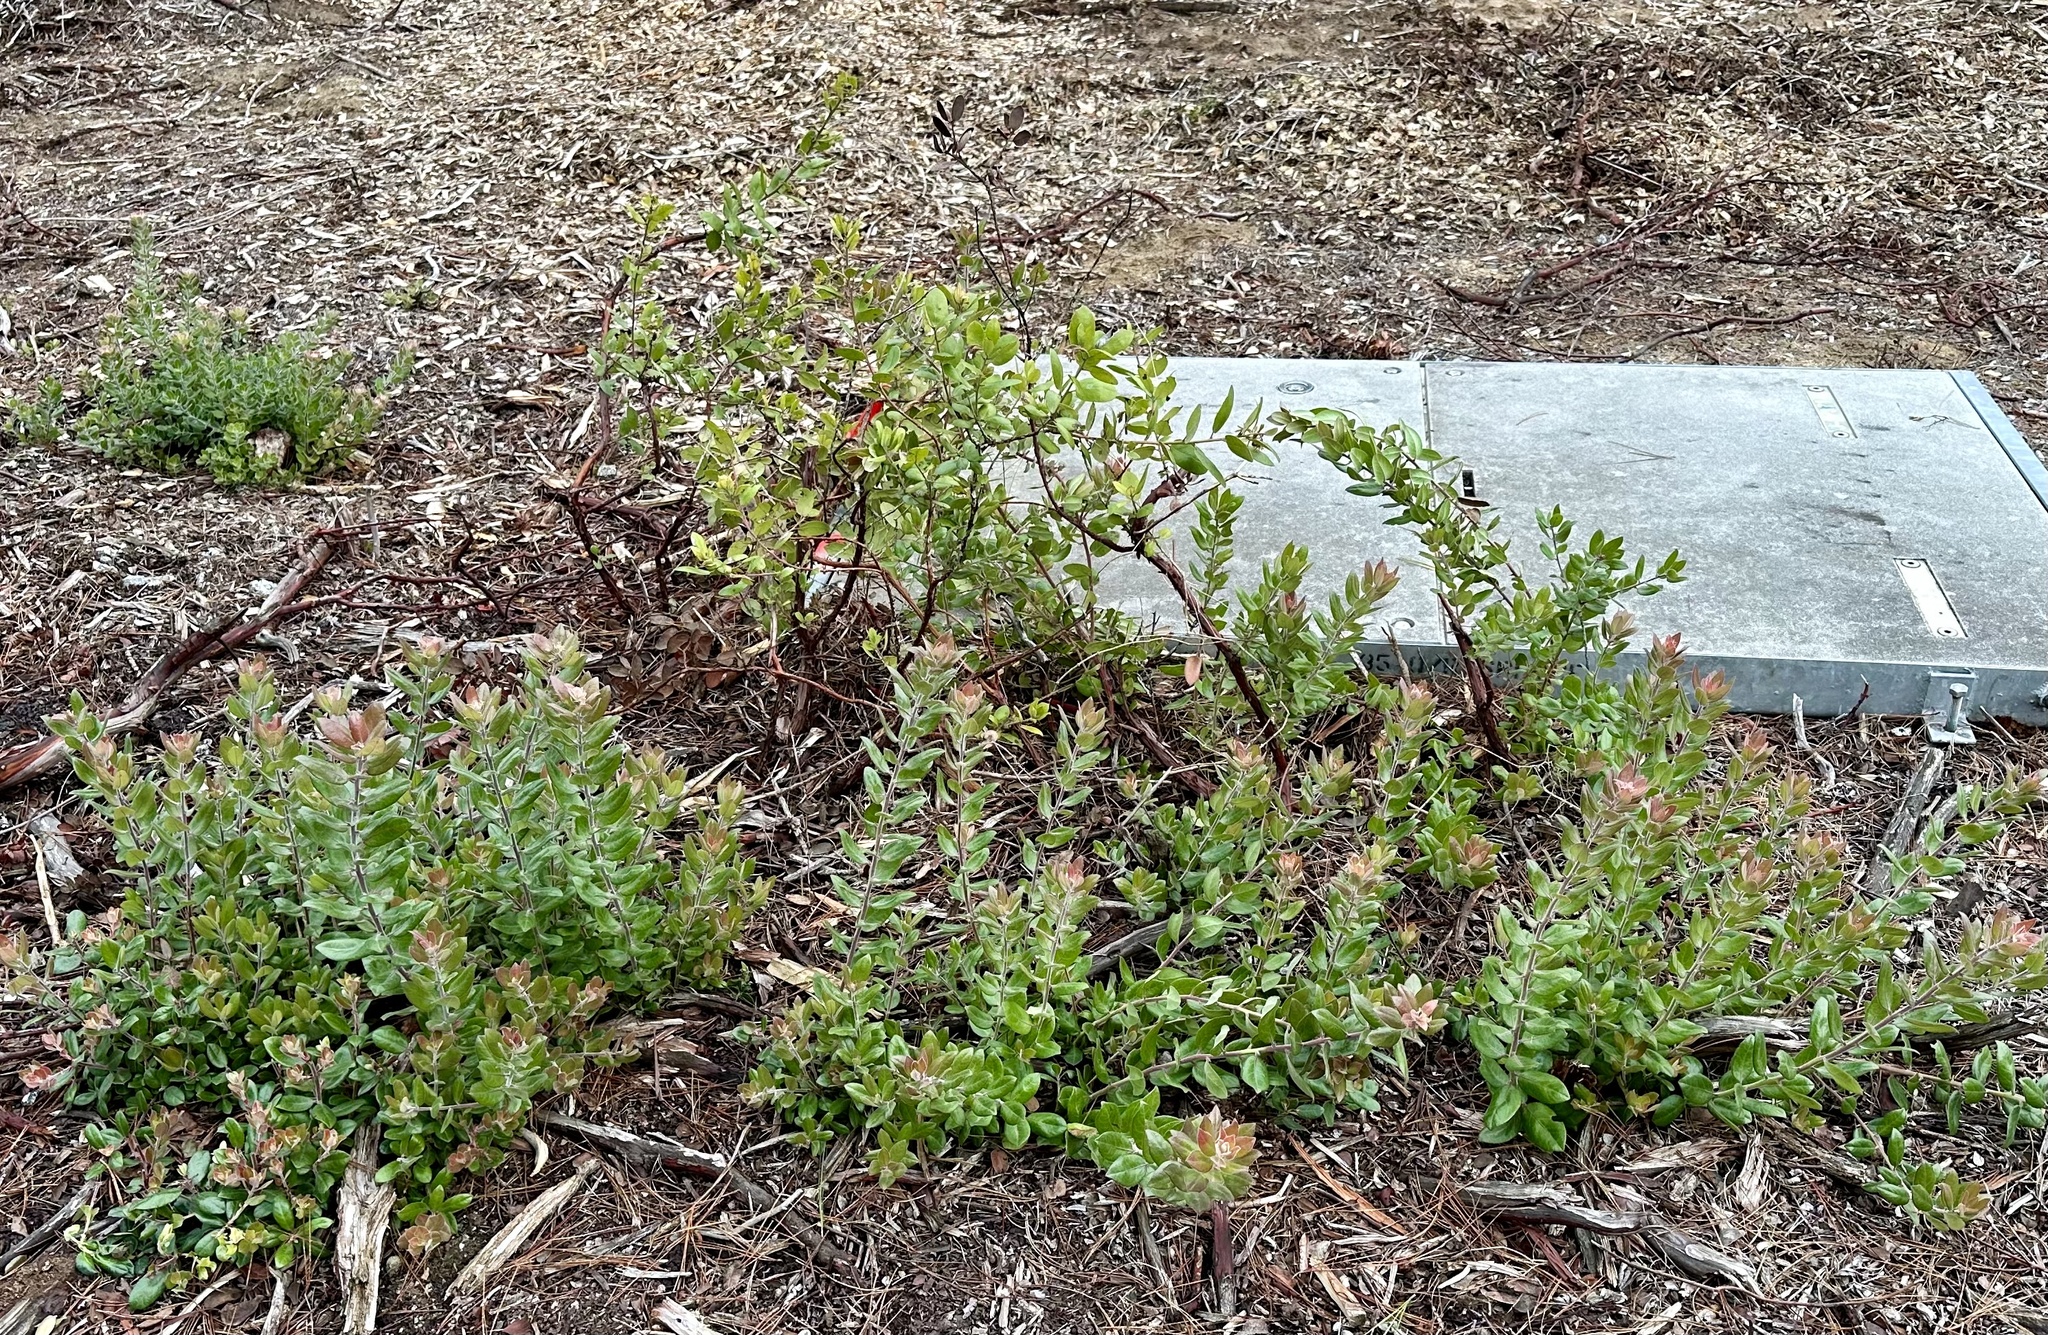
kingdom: Plantae
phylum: Tracheophyta
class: Magnoliopsida
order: Ericales
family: Ericaceae
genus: Arctostaphylos
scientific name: Arctostaphylos tomentosa
